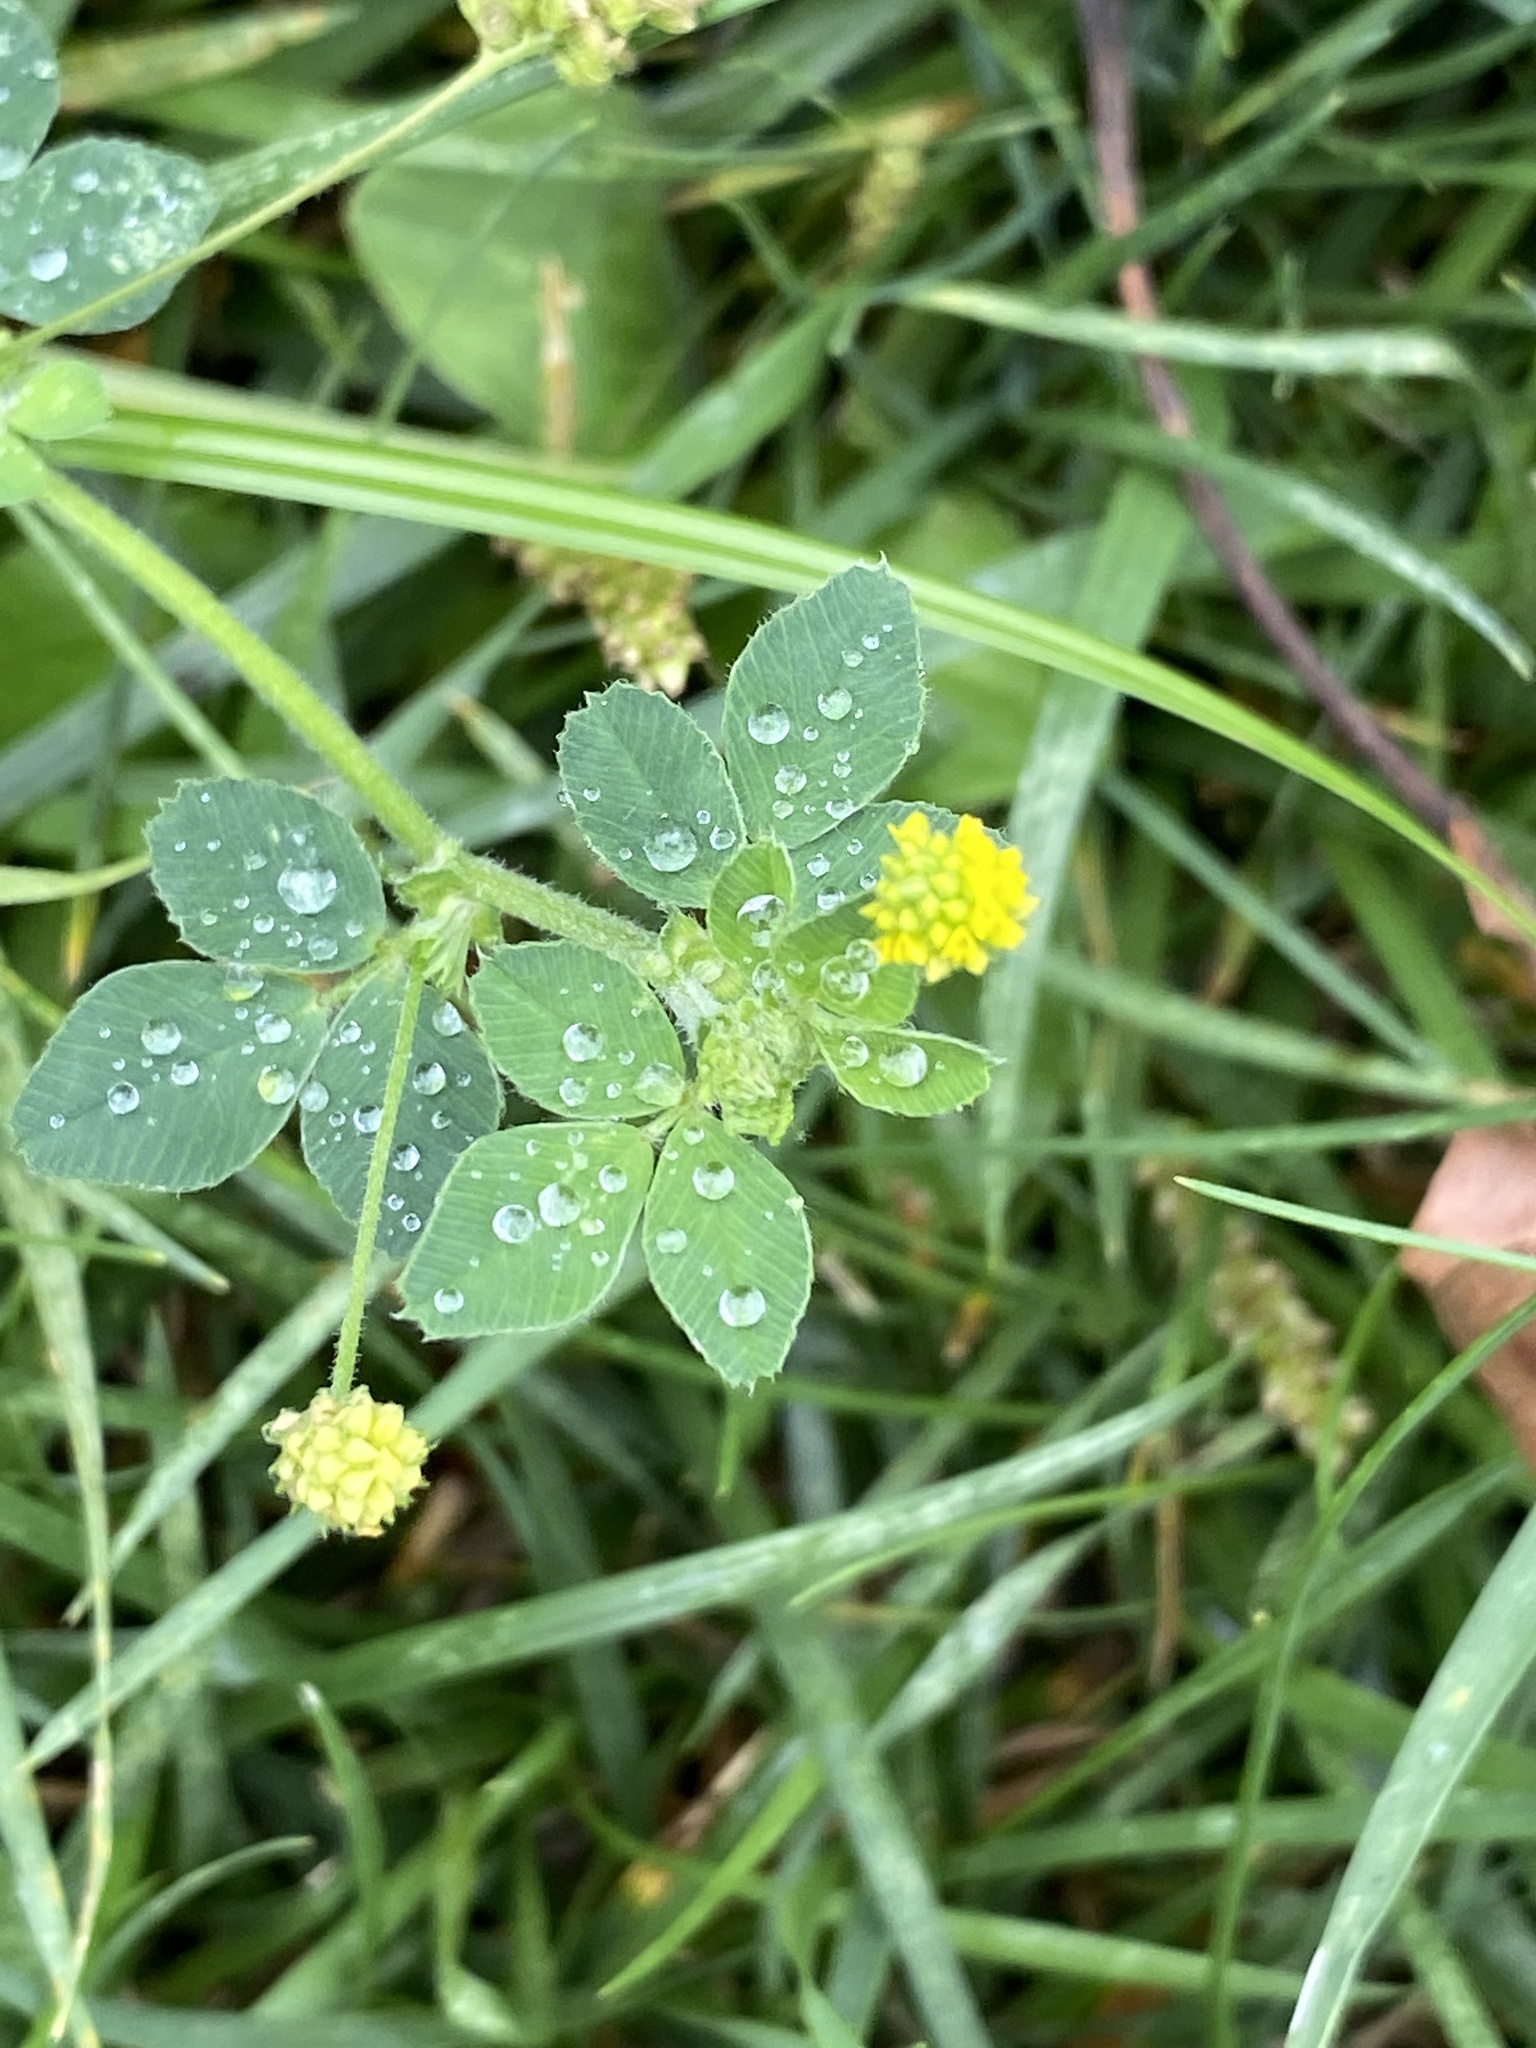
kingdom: Plantae
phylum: Tracheophyta
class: Magnoliopsida
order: Fabales
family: Fabaceae
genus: Medicago
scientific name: Medicago lupulina
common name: Black medick
